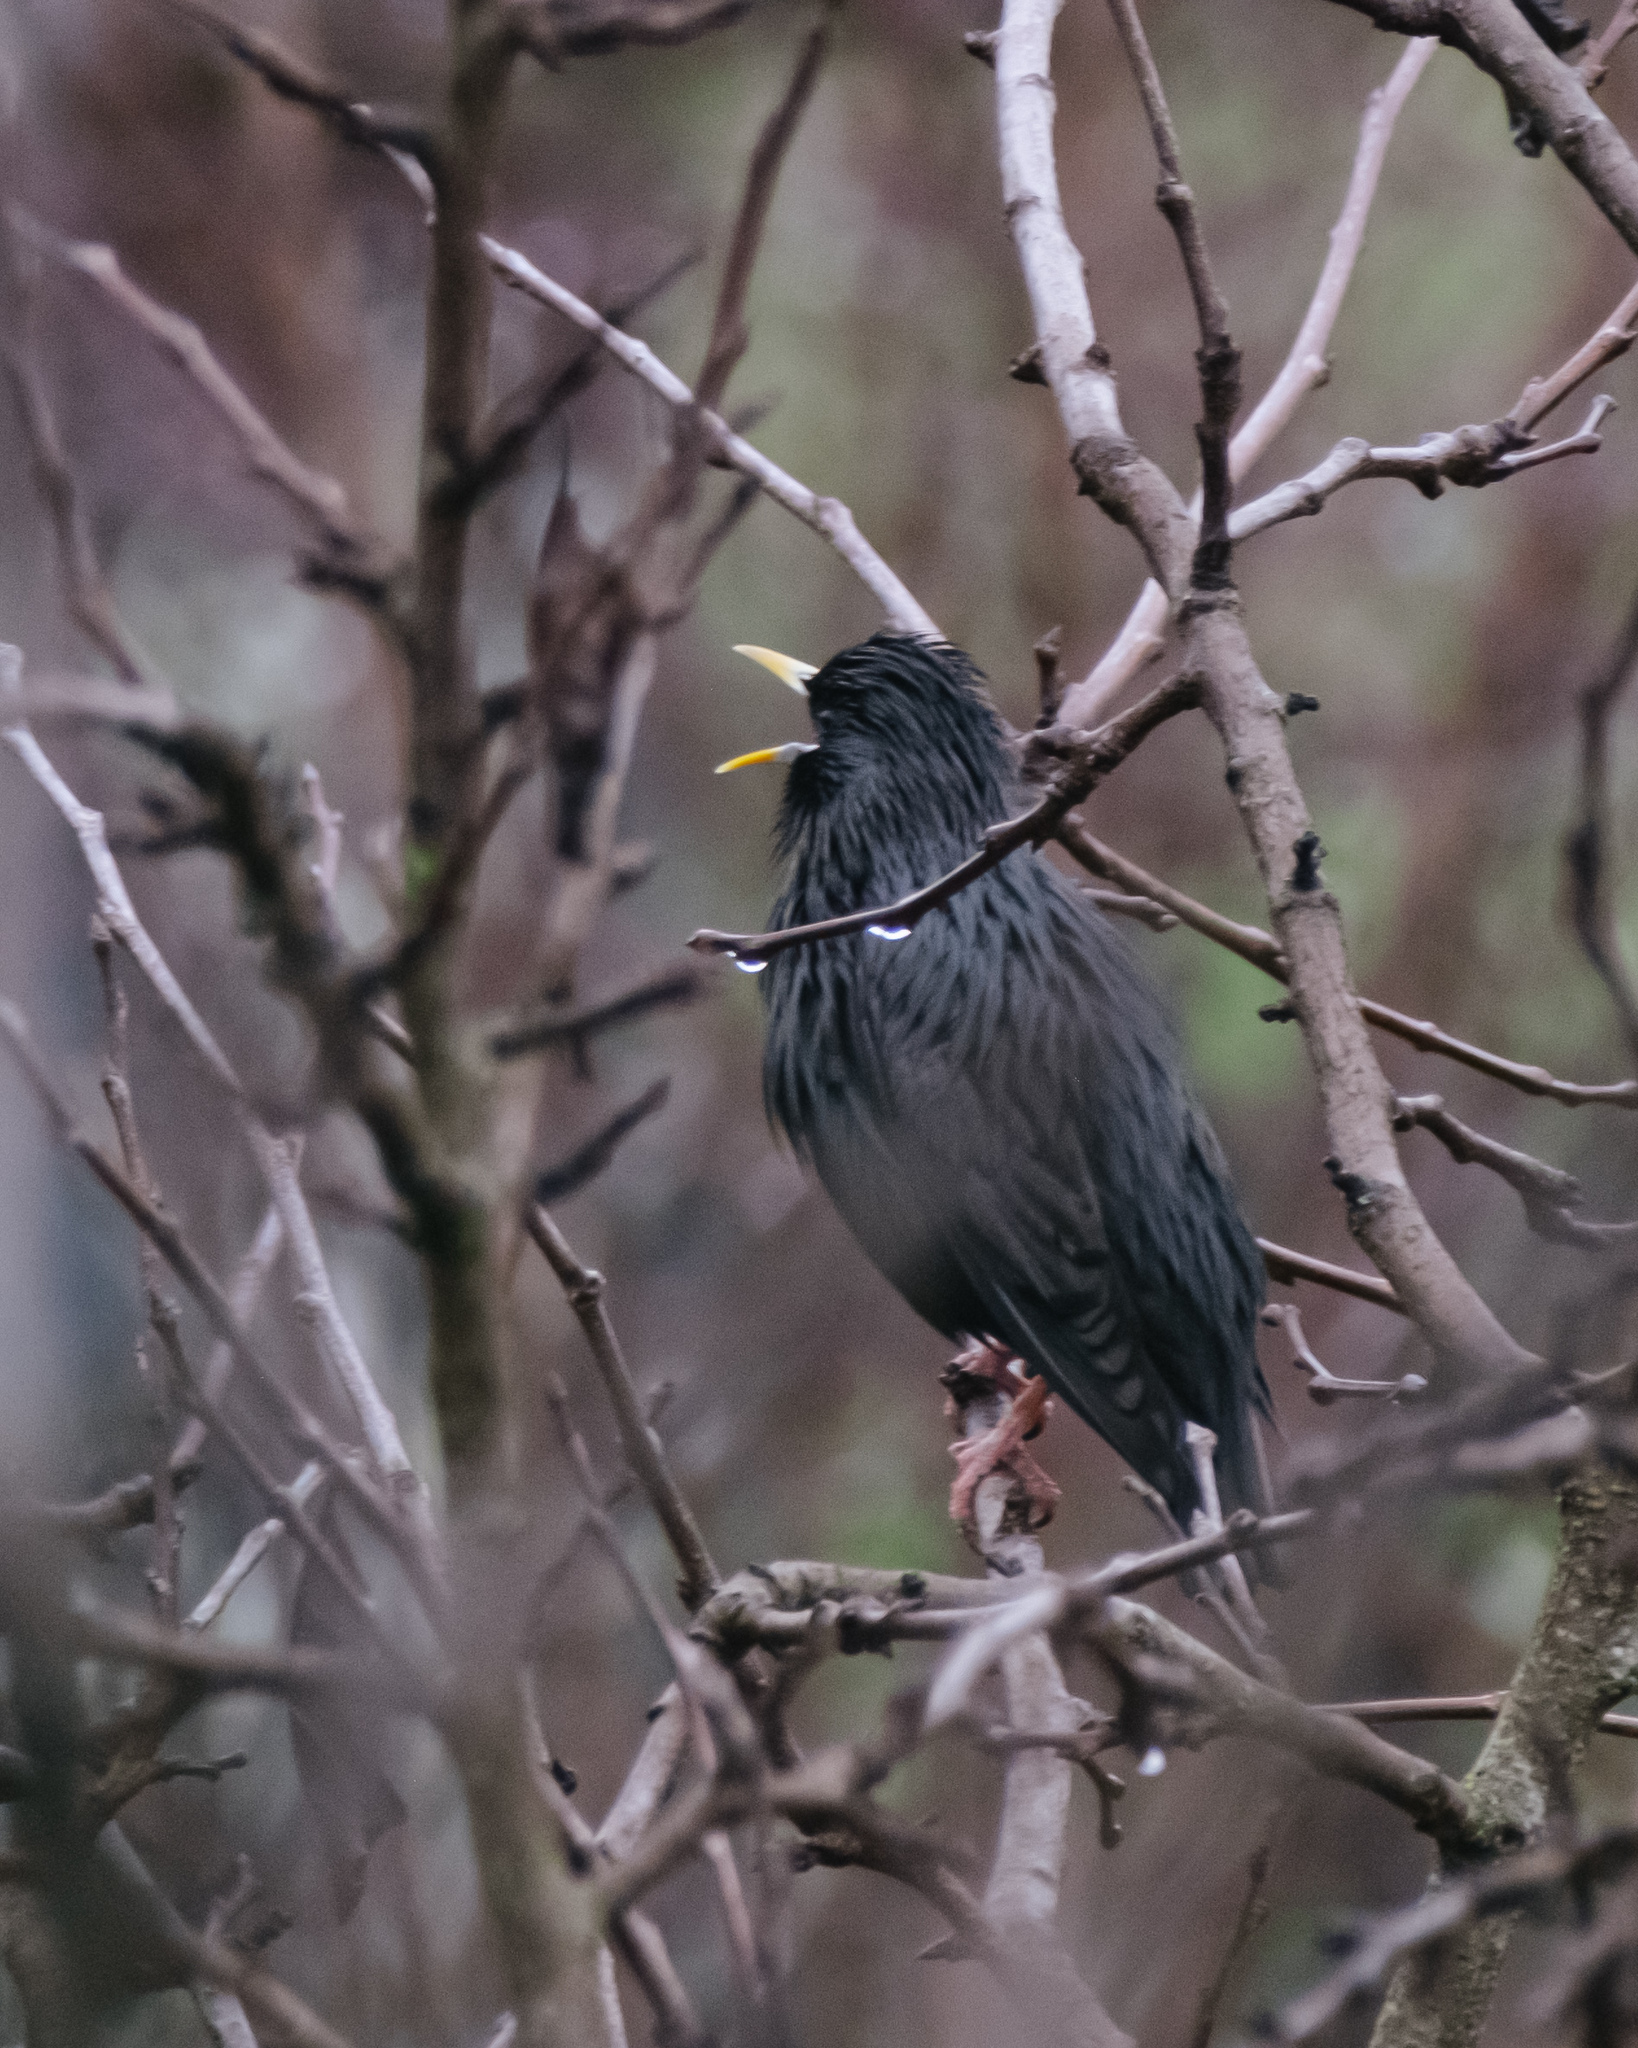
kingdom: Animalia
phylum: Chordata
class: Aves
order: Passeriformes
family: Sturnidae
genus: Sturnus
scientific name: Sturnus unicolor
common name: Spotless starling
